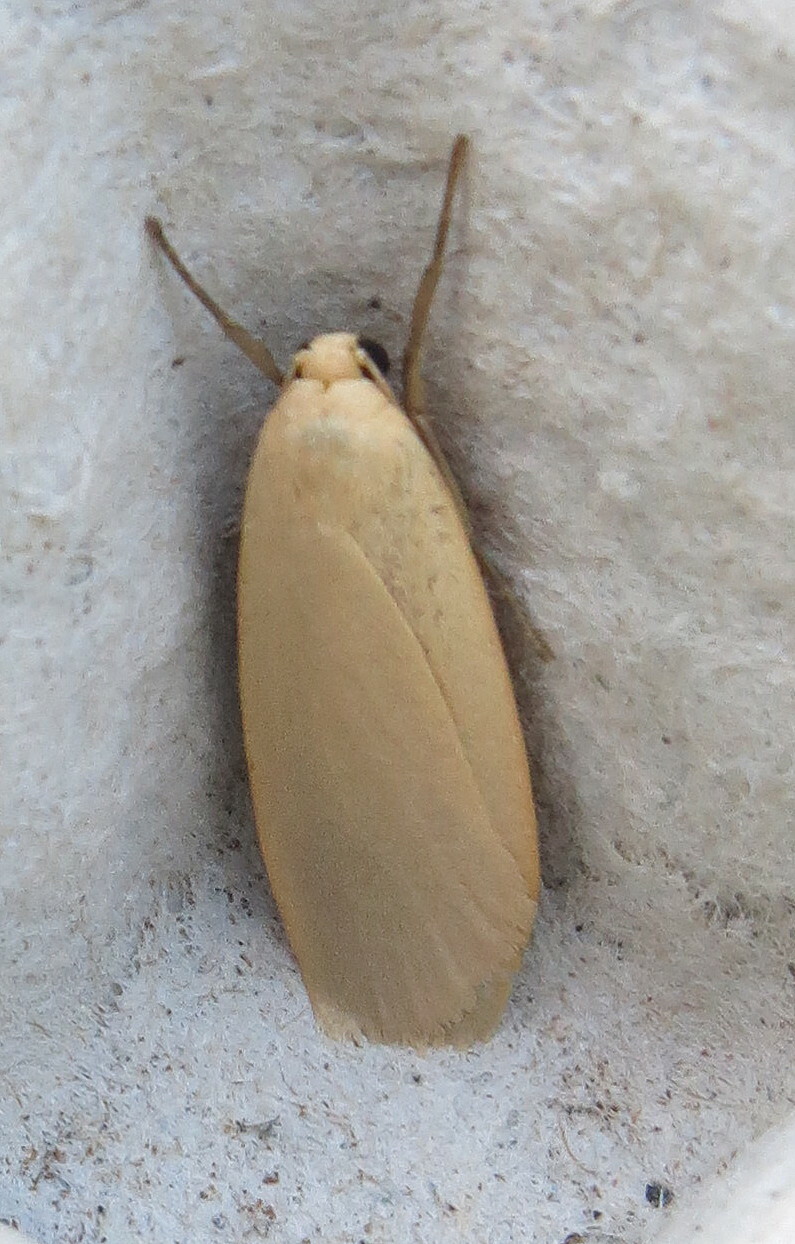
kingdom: Animalia
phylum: Arthropoda
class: Insecta
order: Lepidoptera
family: Erebidae
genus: Collita
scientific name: Collita griseola
